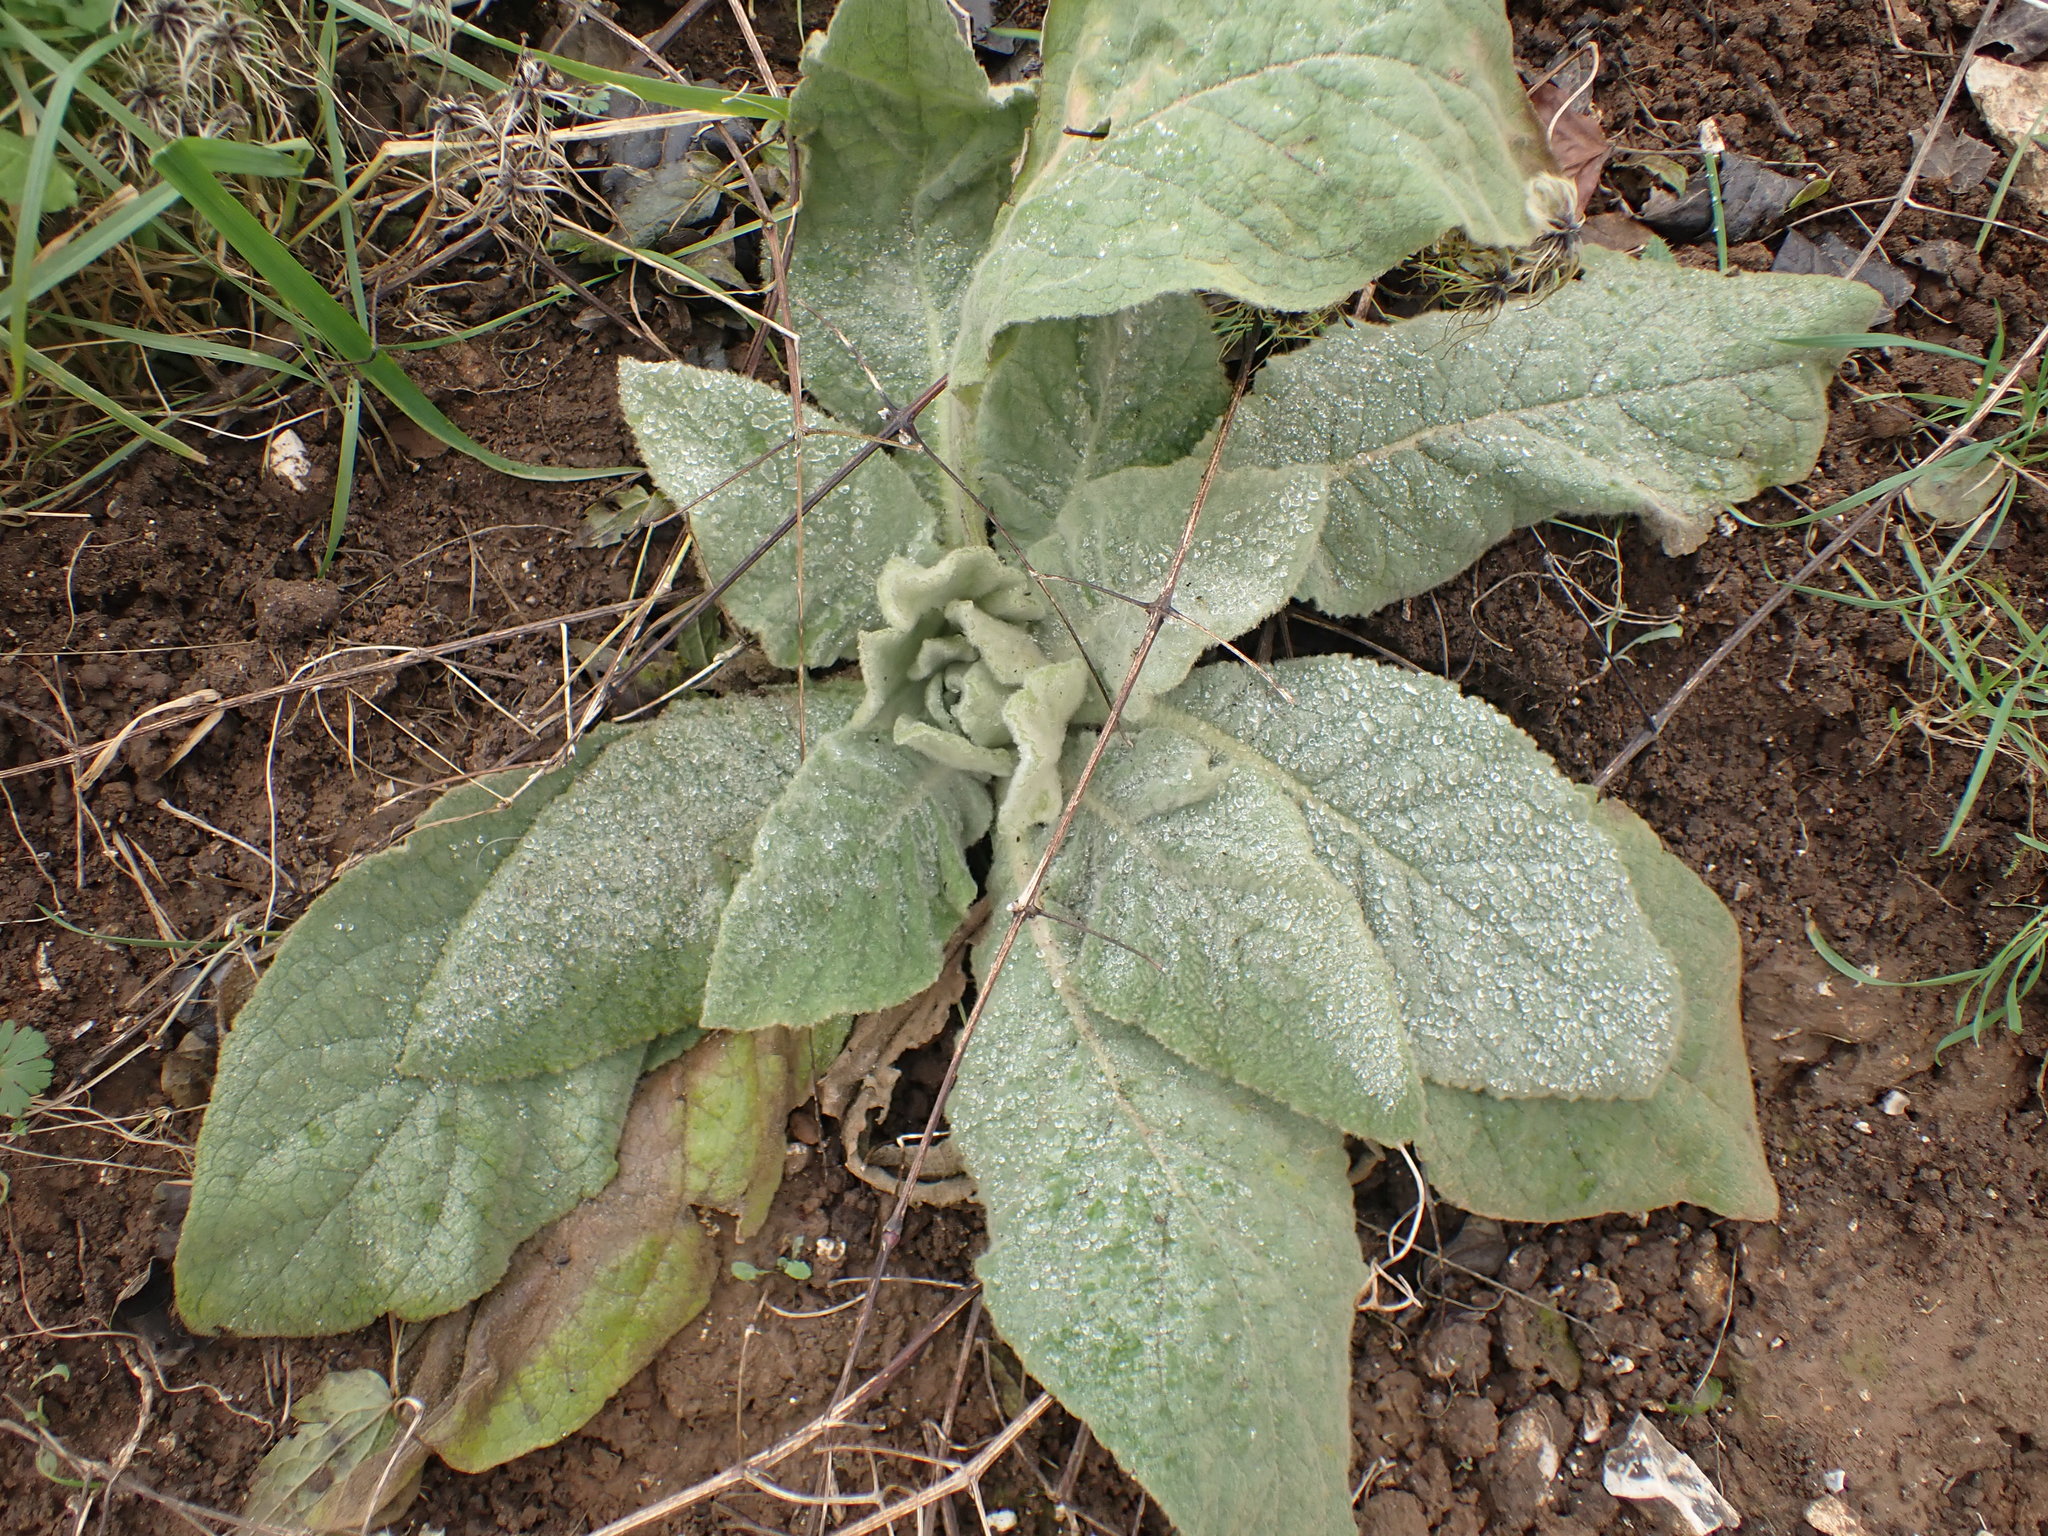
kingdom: Plantae
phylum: Tracheophyta
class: Magnoliopsida
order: Lamiales
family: Scrophulariaceae
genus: Verbascum
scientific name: Verbascum thapsus
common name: Common mullein
